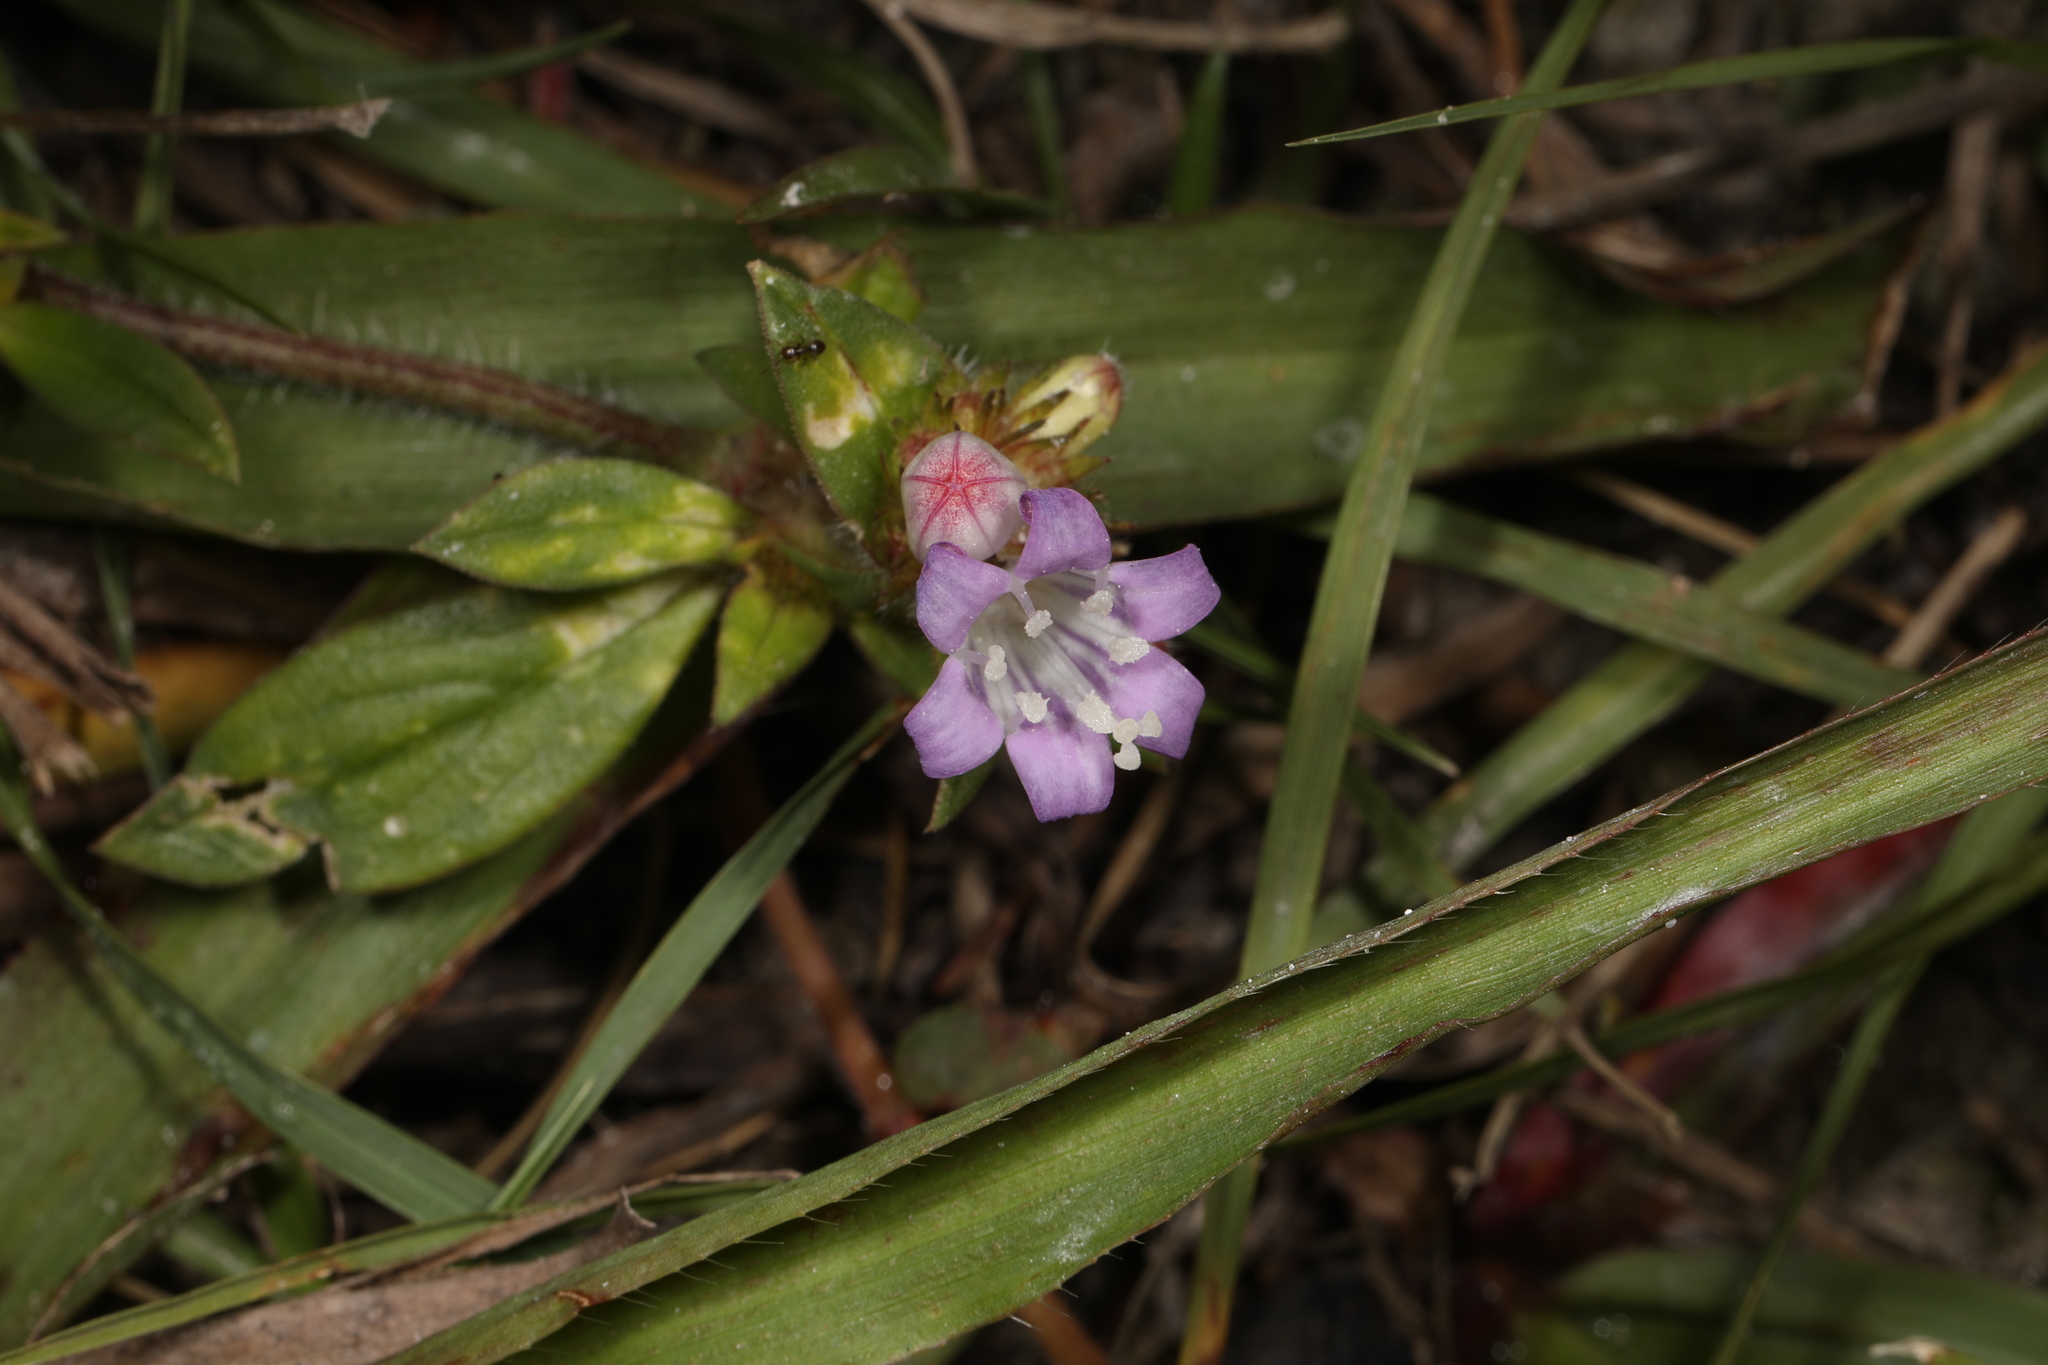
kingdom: Plantae
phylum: Tracheophyta
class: Magnoliopsida
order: Gentianales
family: Rubiaceae
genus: Richardia
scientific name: Richardia grandiflora
